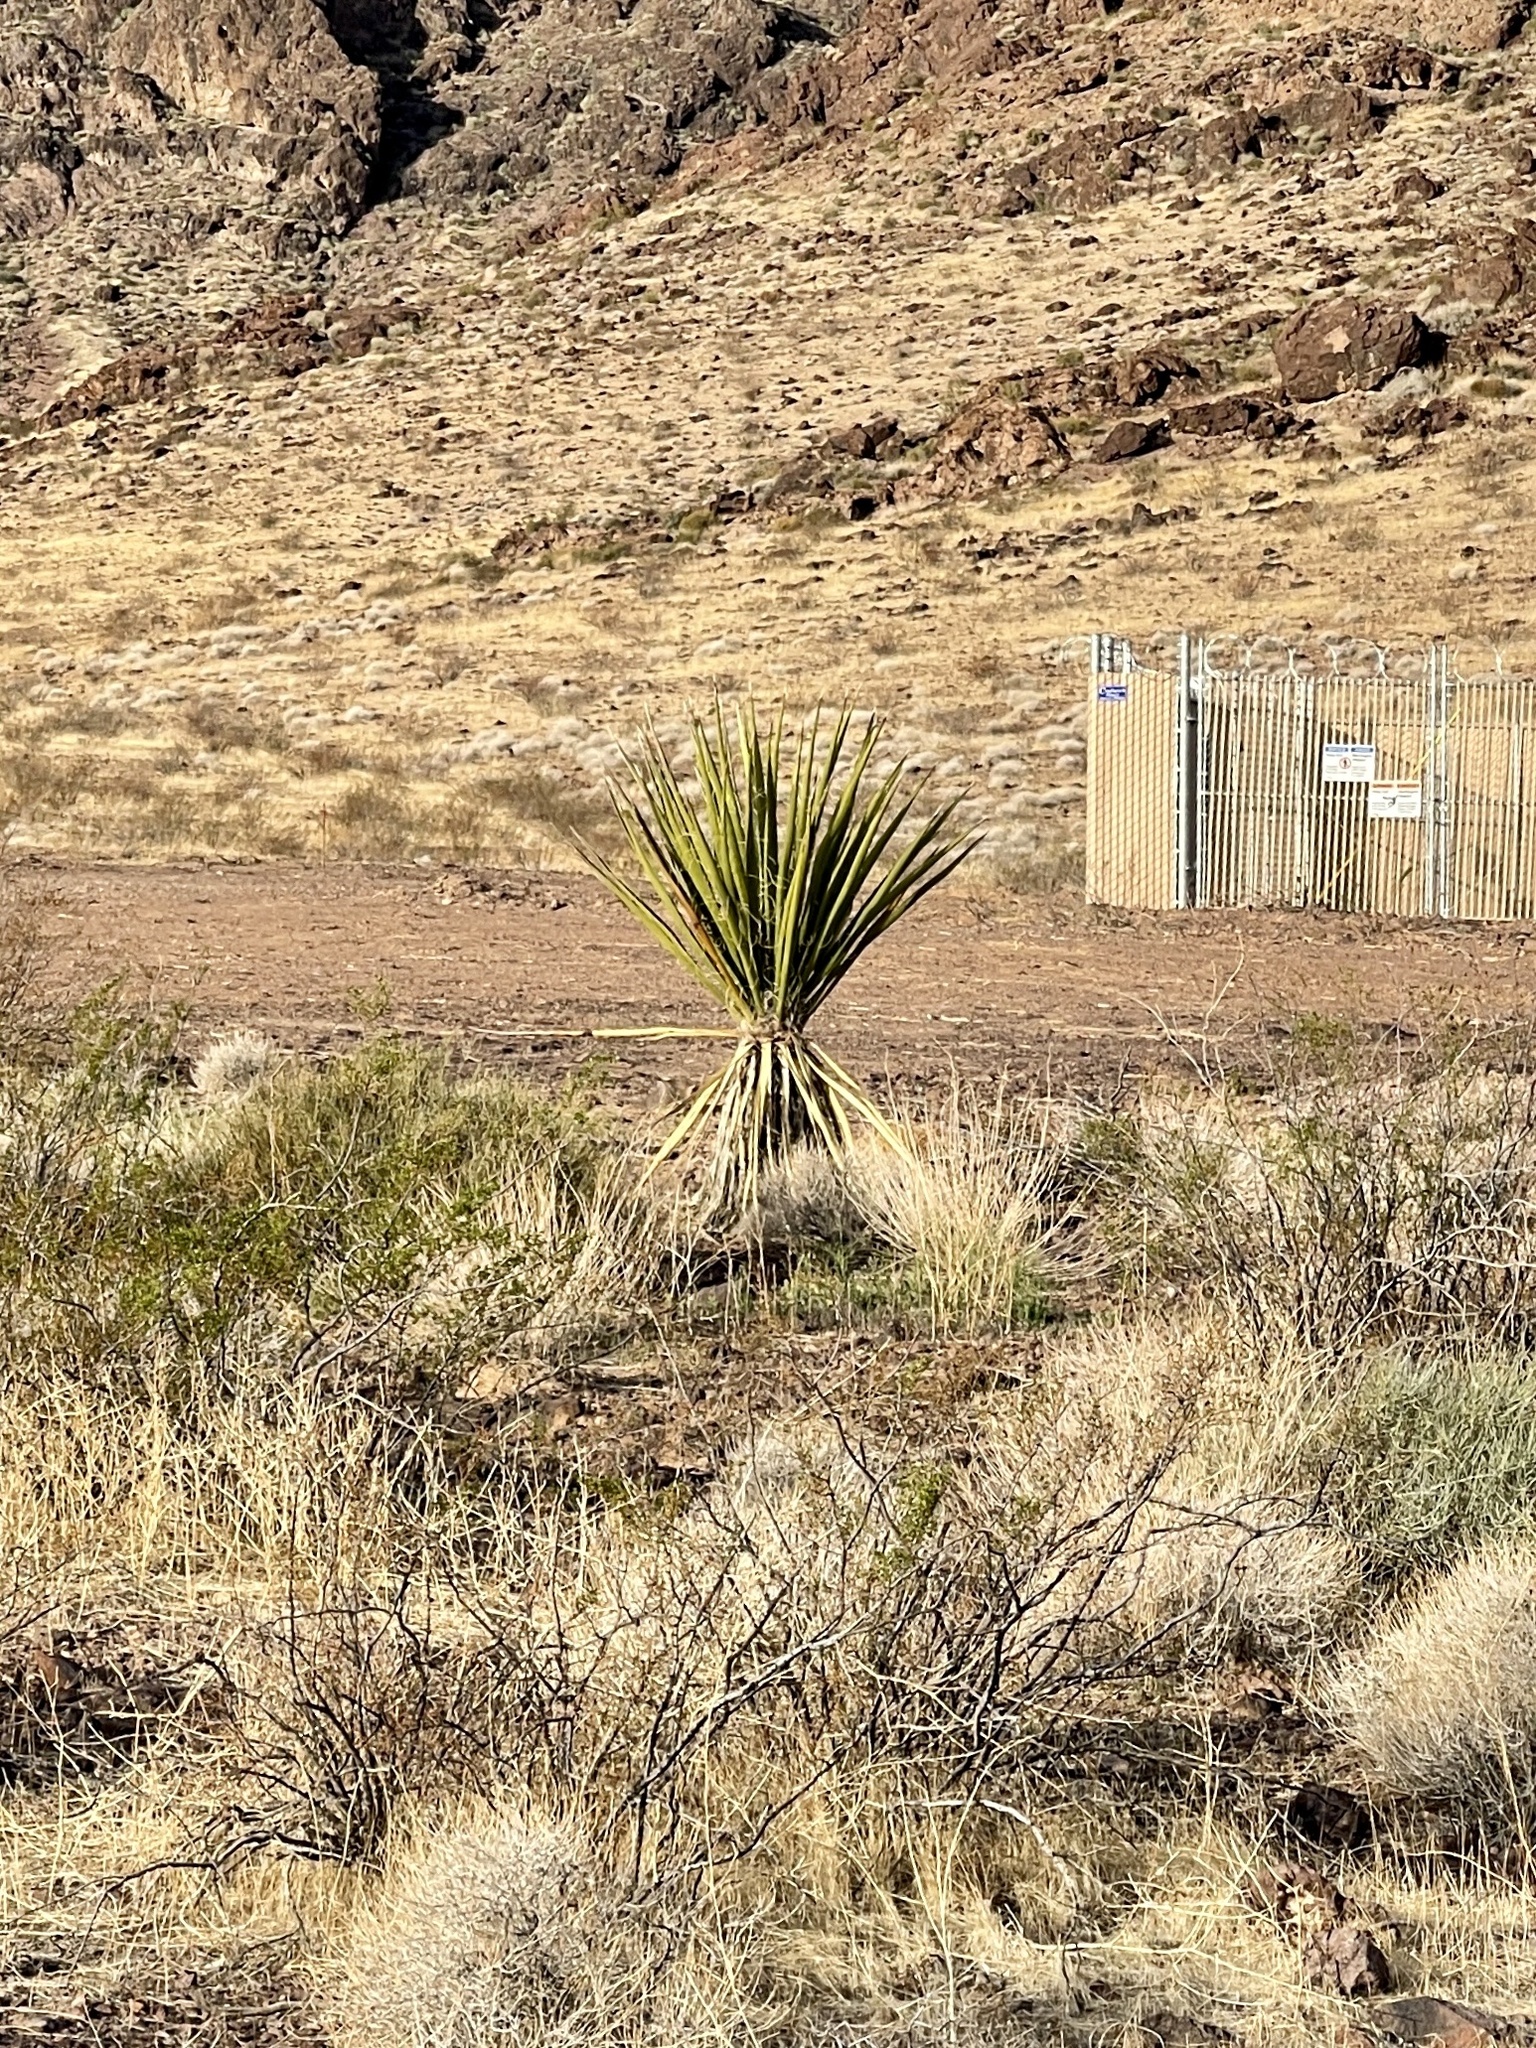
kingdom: Plantae
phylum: Tracheophyta
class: Liliopsida
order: Asparagales
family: Asparagaceae
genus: Yucca
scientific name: Yucca schidigera
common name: Mojave yucca
